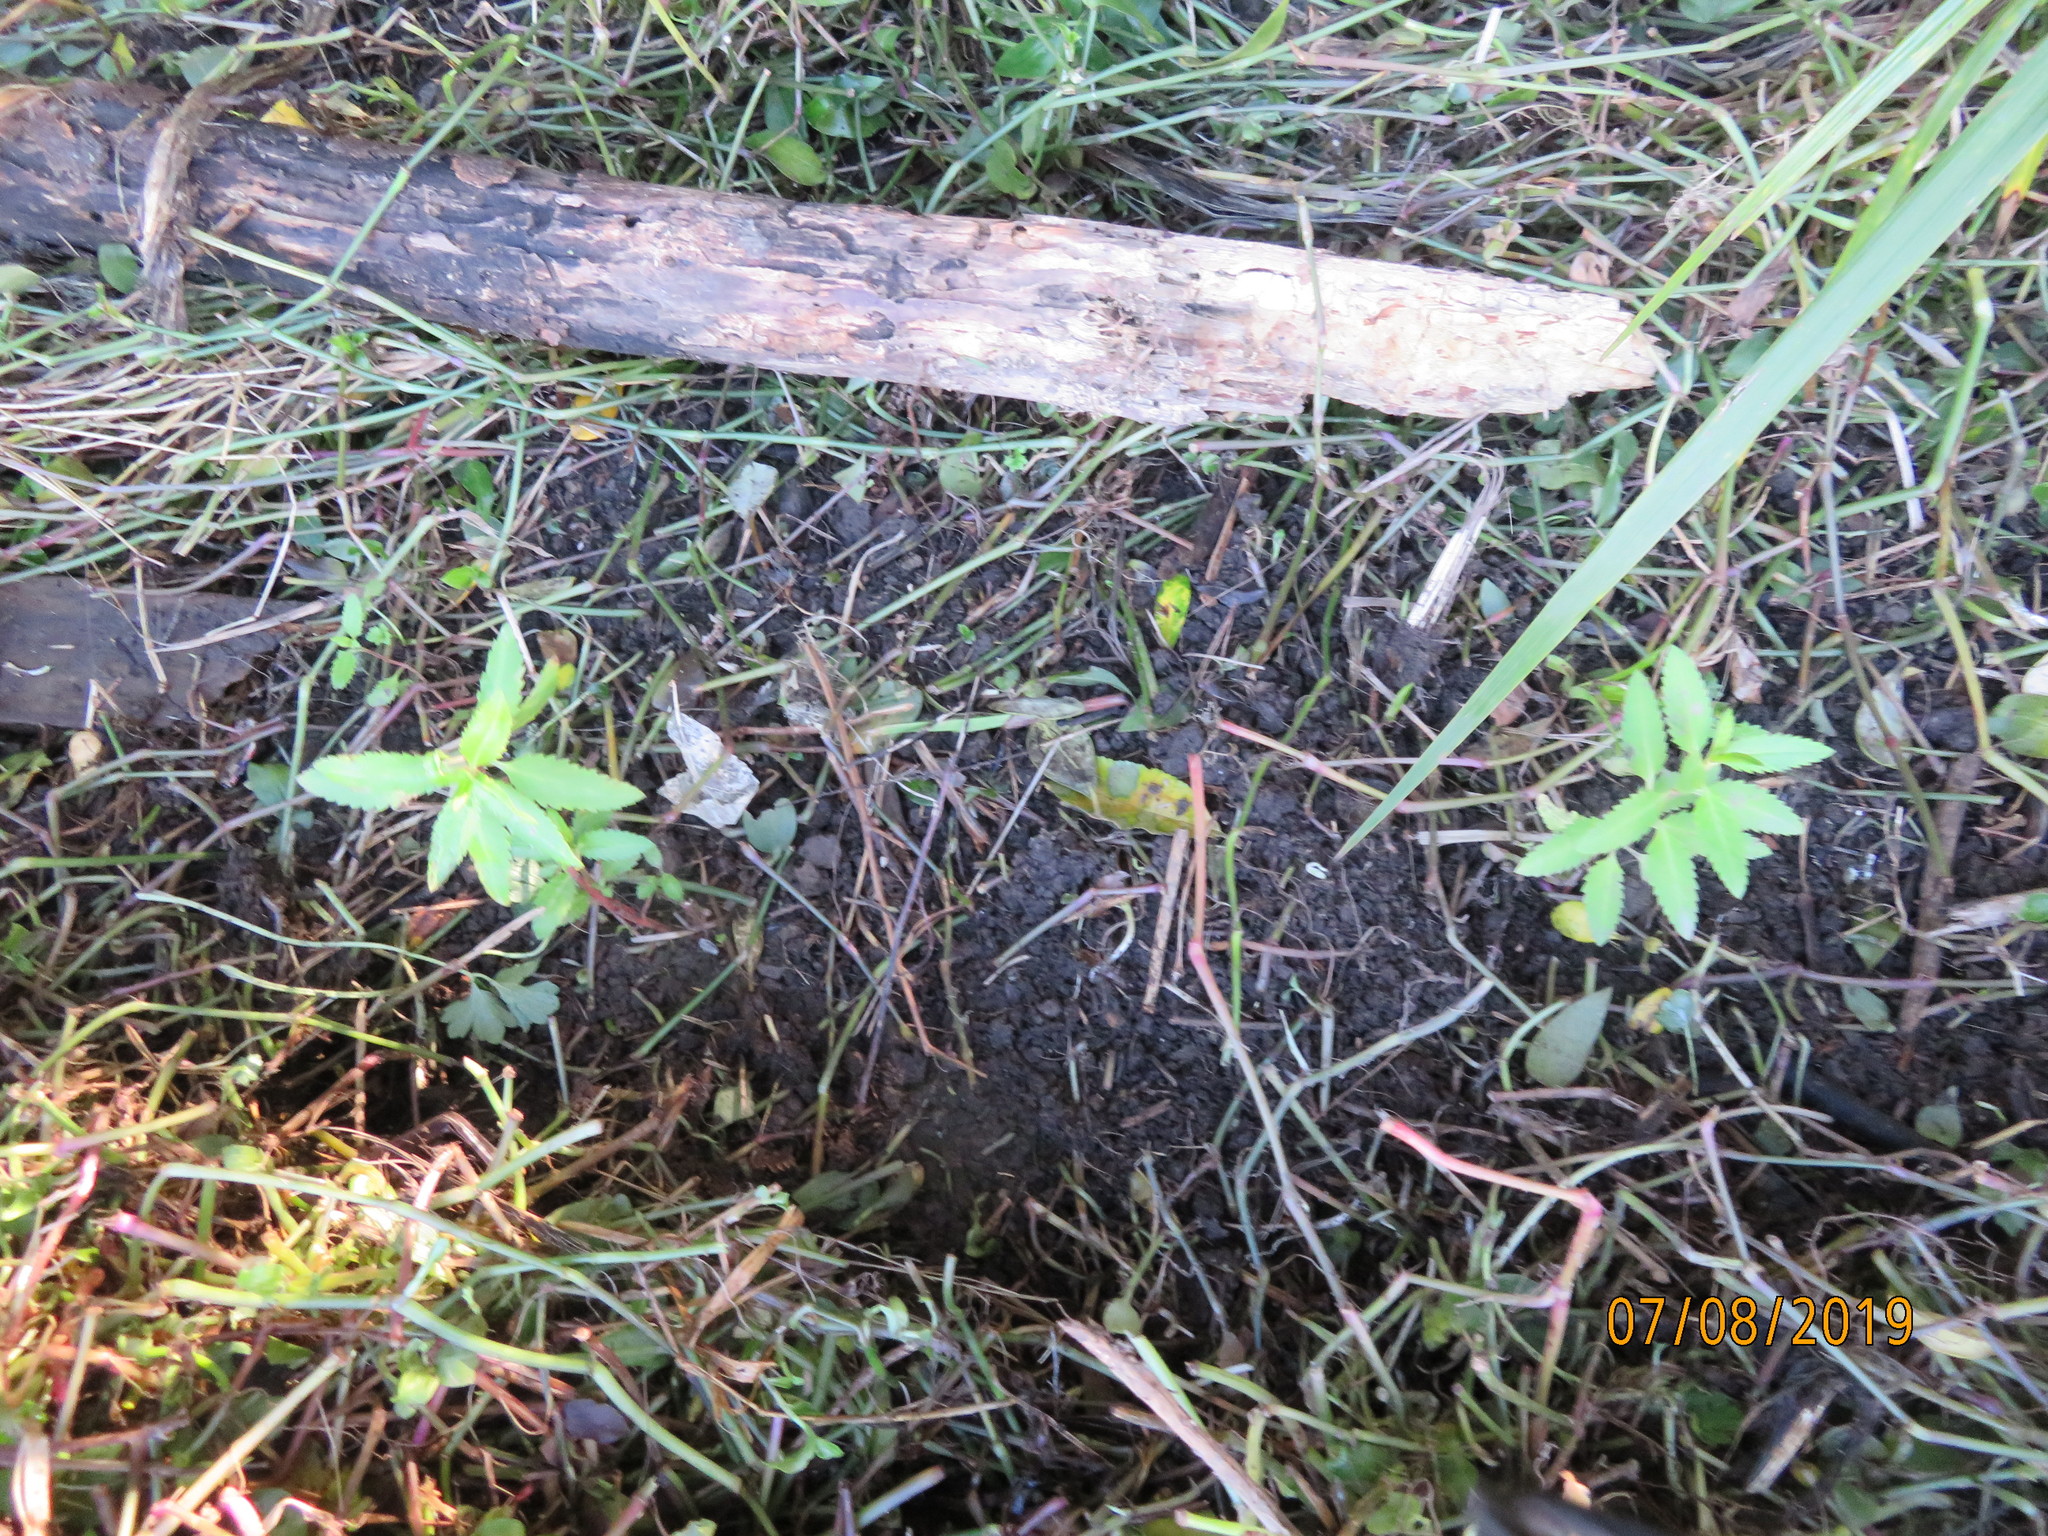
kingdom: Plantae
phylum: Tracheophyta
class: Magnoliopsida
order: Saxifragales
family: Haloragaceae
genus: Haloragis
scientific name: Haloragis erecta
